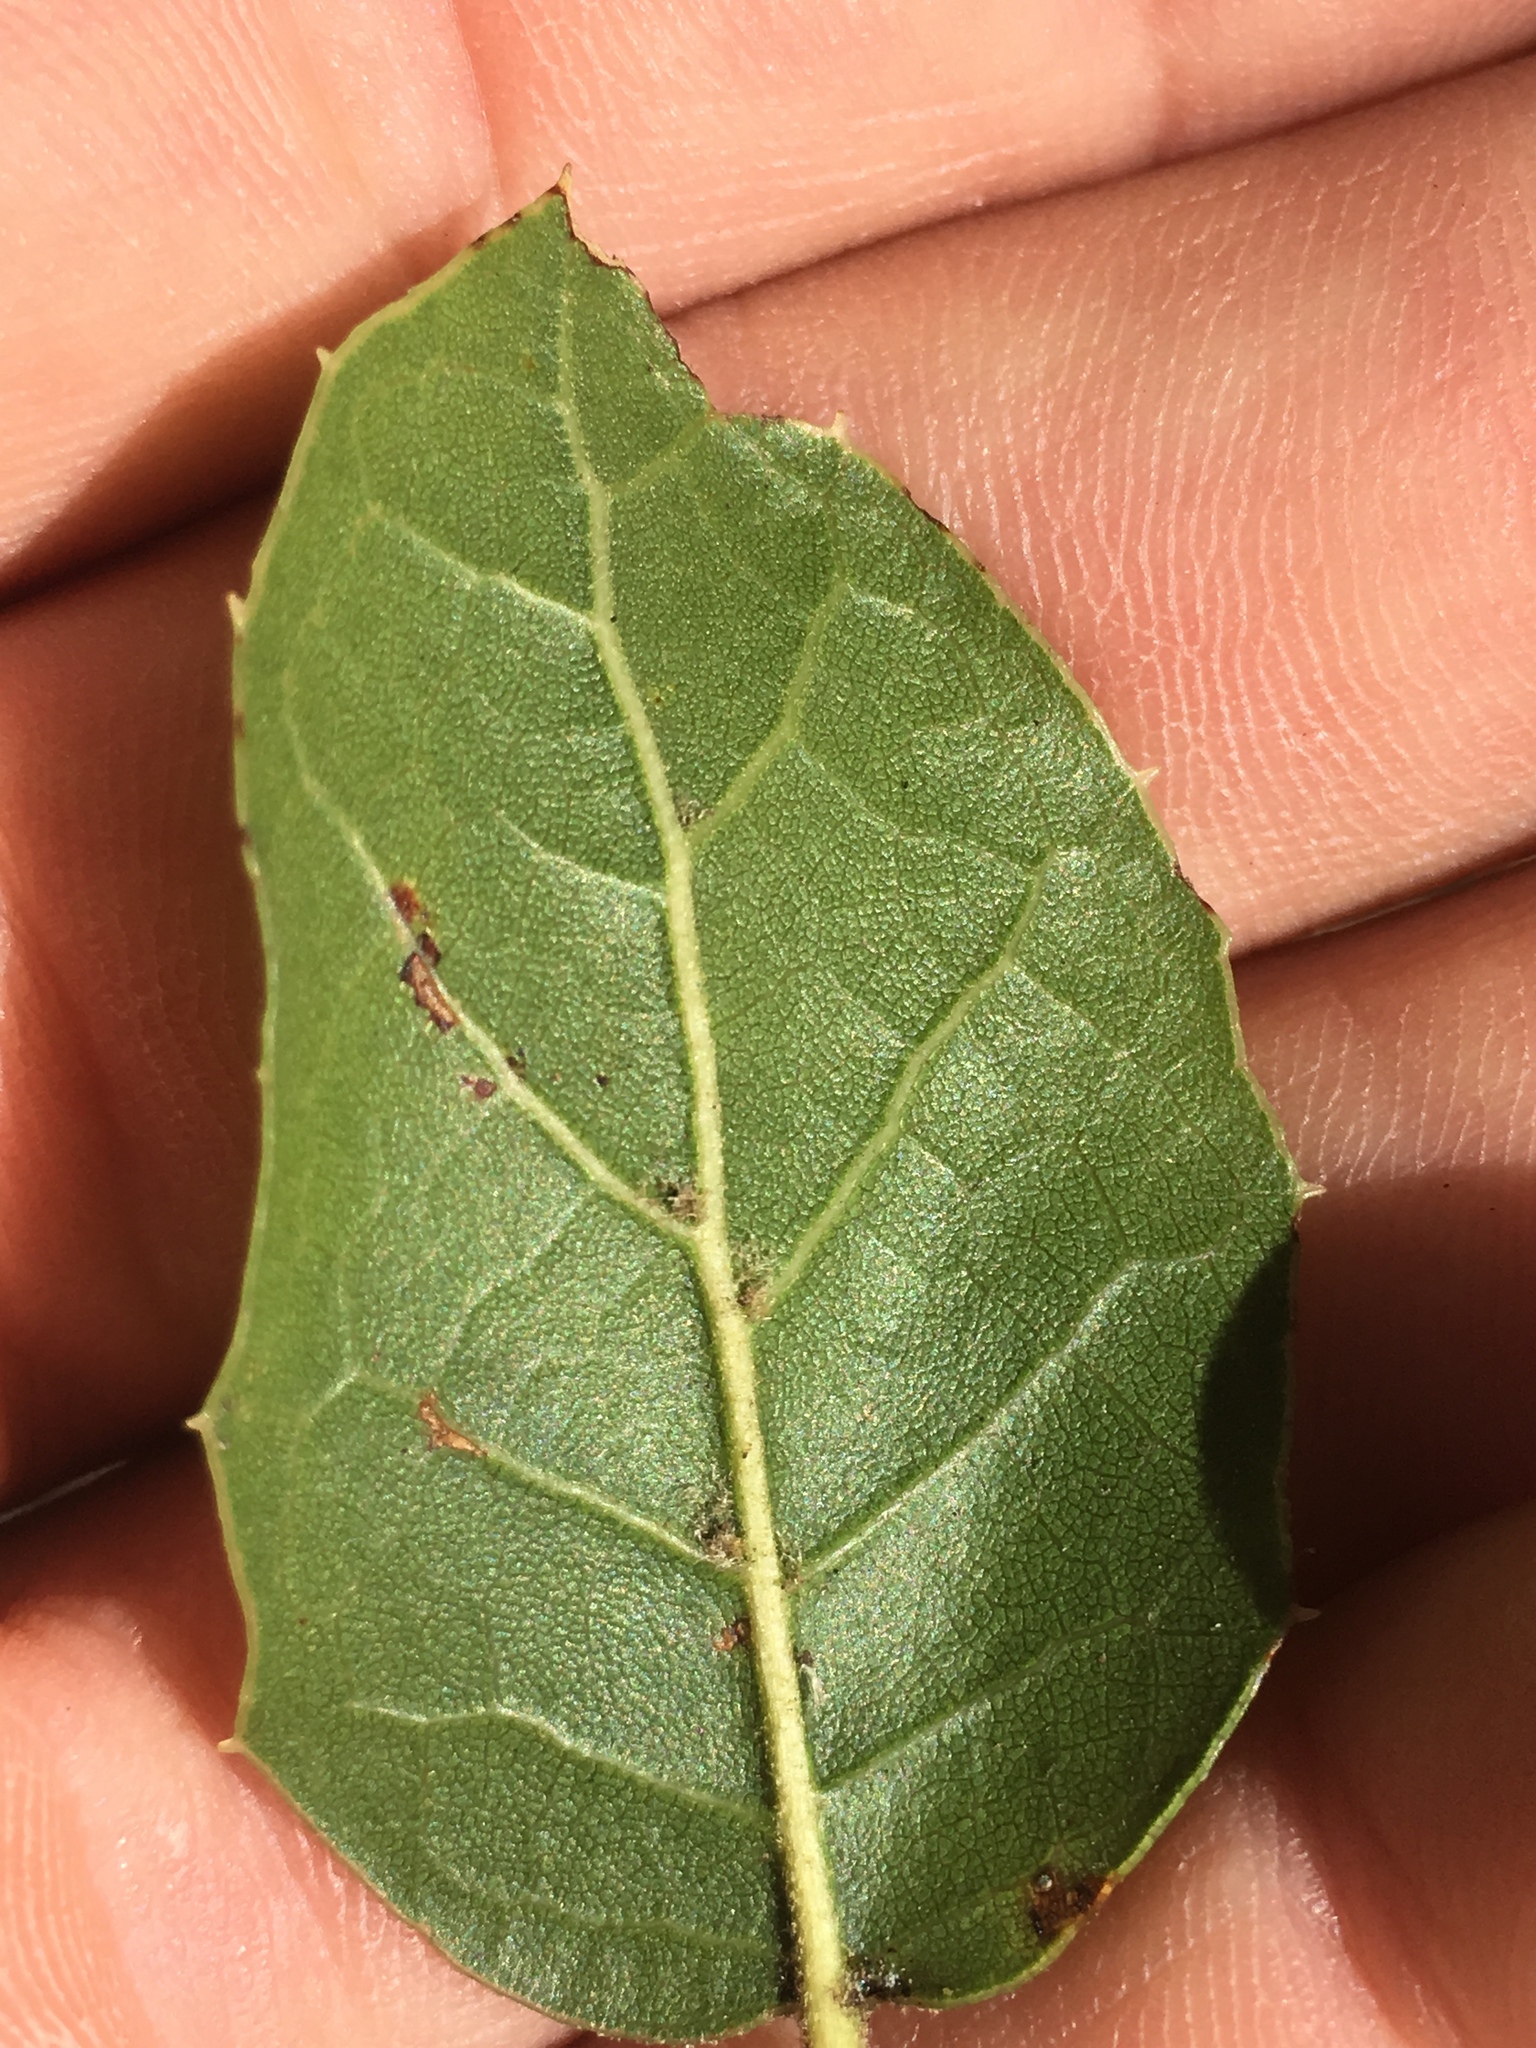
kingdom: Plantae
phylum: Tracheophyta
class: Magnoliopsida
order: Fagales
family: Fagaceae
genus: Quercus
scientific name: Quercus agrifolia
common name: California live oak
